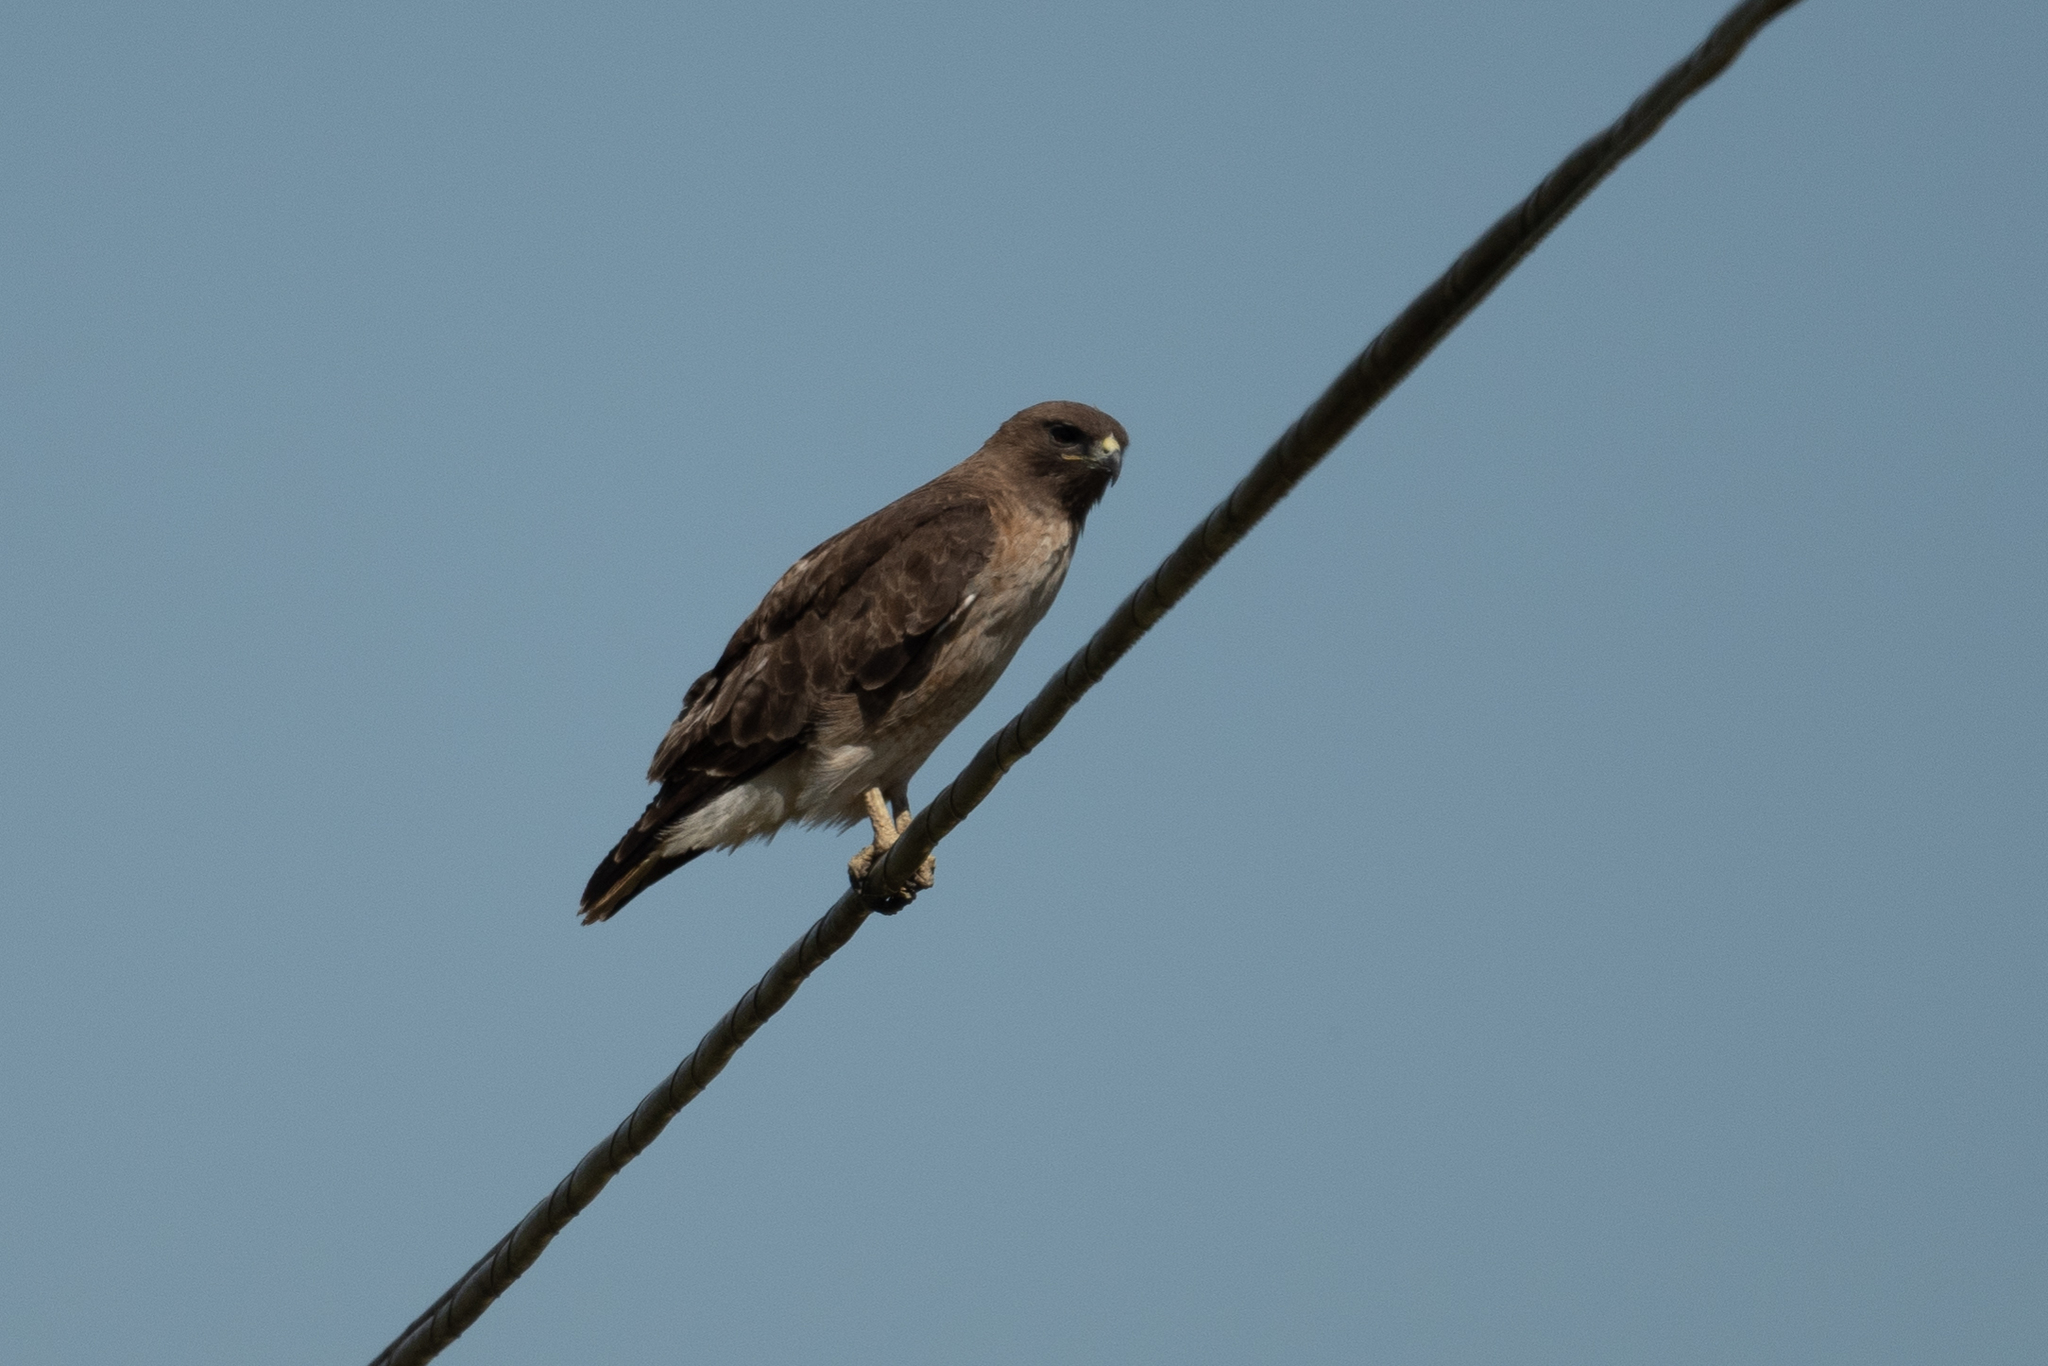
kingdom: Animalia
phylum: Chordata
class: Aves
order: Accipitriformes
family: Accipitridae
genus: Buteo
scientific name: Buteo jamaicensis
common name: Red-tailed hawk
